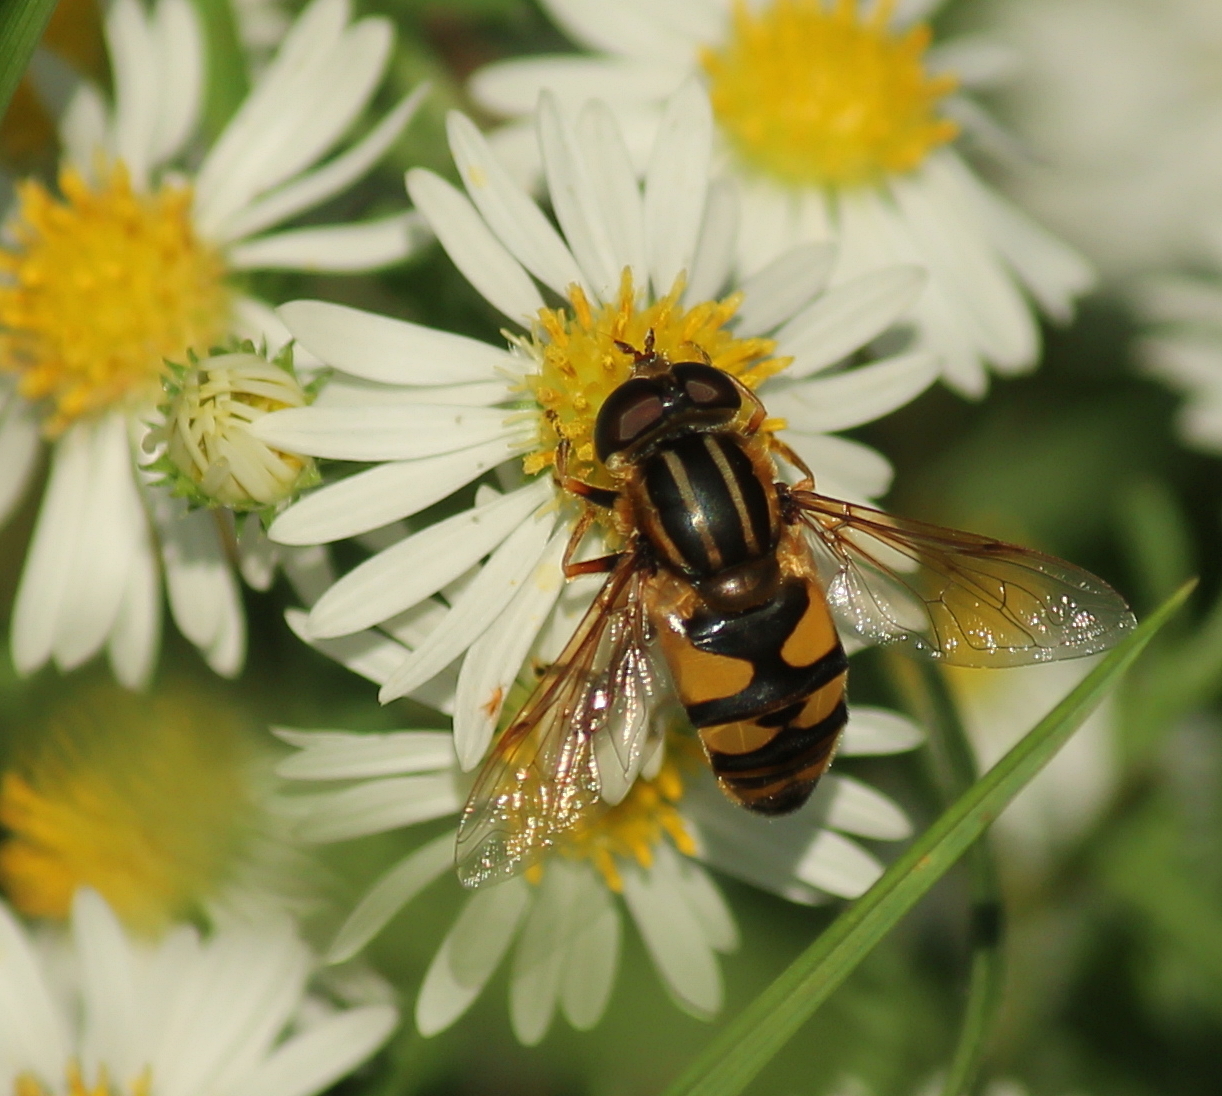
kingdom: Animalia
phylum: Arthropoda
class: Insecta
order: Diptera
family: Syrphidae
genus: Helophilus
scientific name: Helophilus fasciatus
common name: Narrow-headed marsh fly
